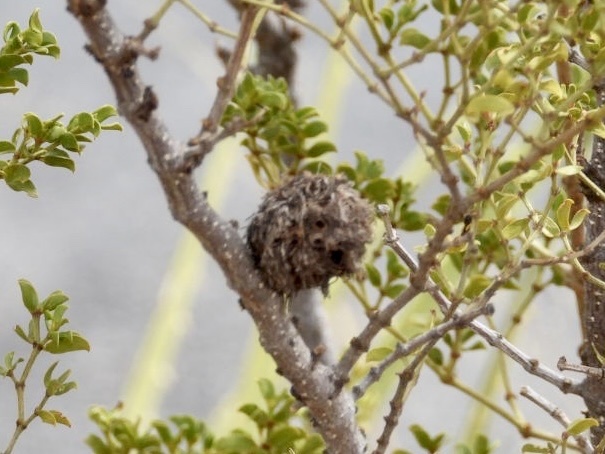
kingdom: Animalia
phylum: Arthropoda
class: Insecta
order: Diptera
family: Cecidomyiidae
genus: Asphondylia
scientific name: Asphondylia auripila
